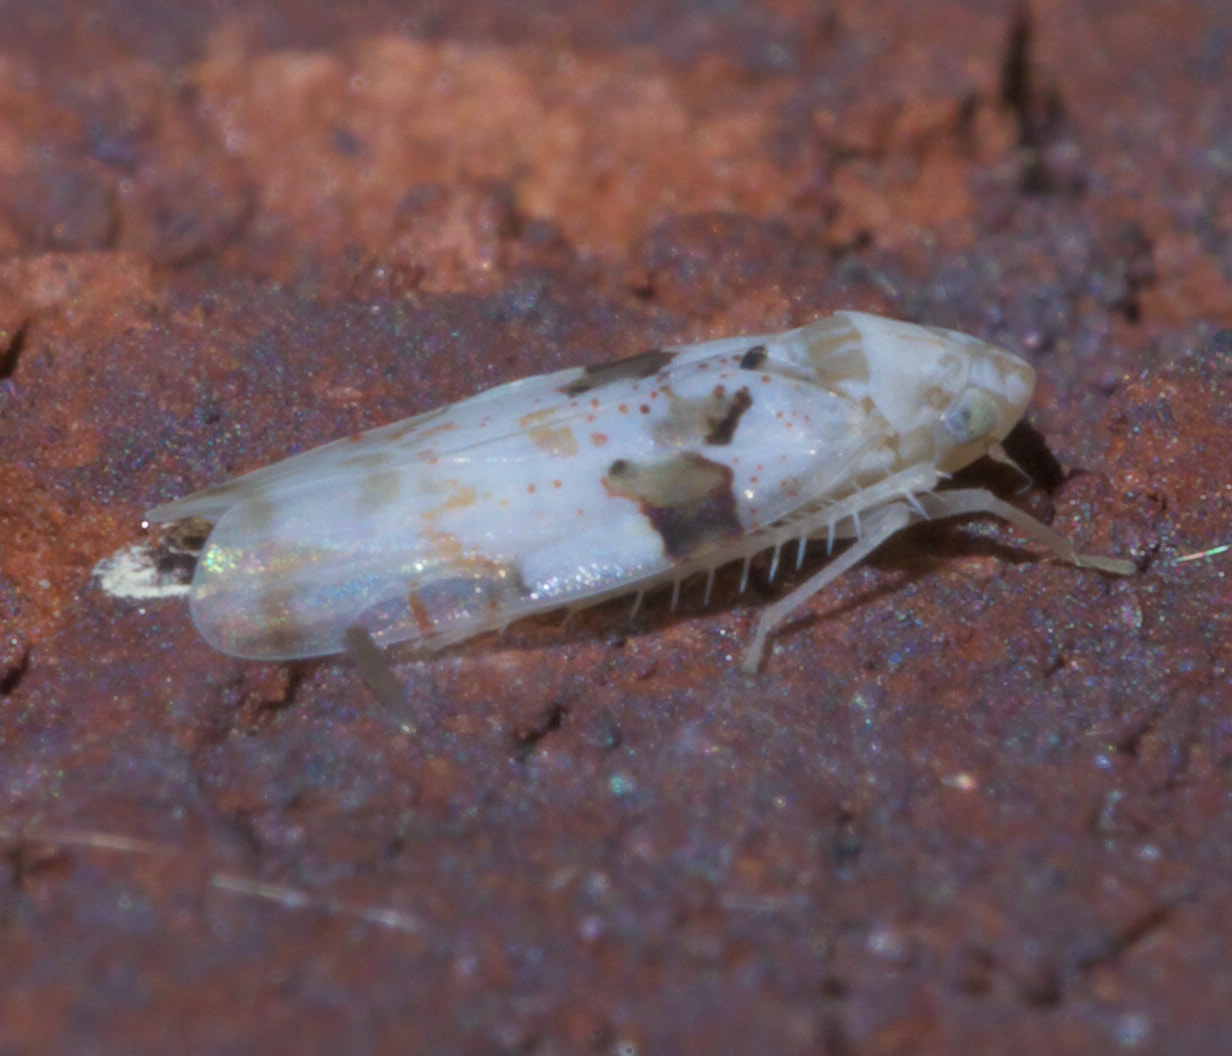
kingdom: Animalia
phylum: Arthropoda
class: Insecta
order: Hemiptera
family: Cicadellidae
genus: Hymetta
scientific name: Hymetta balteata
